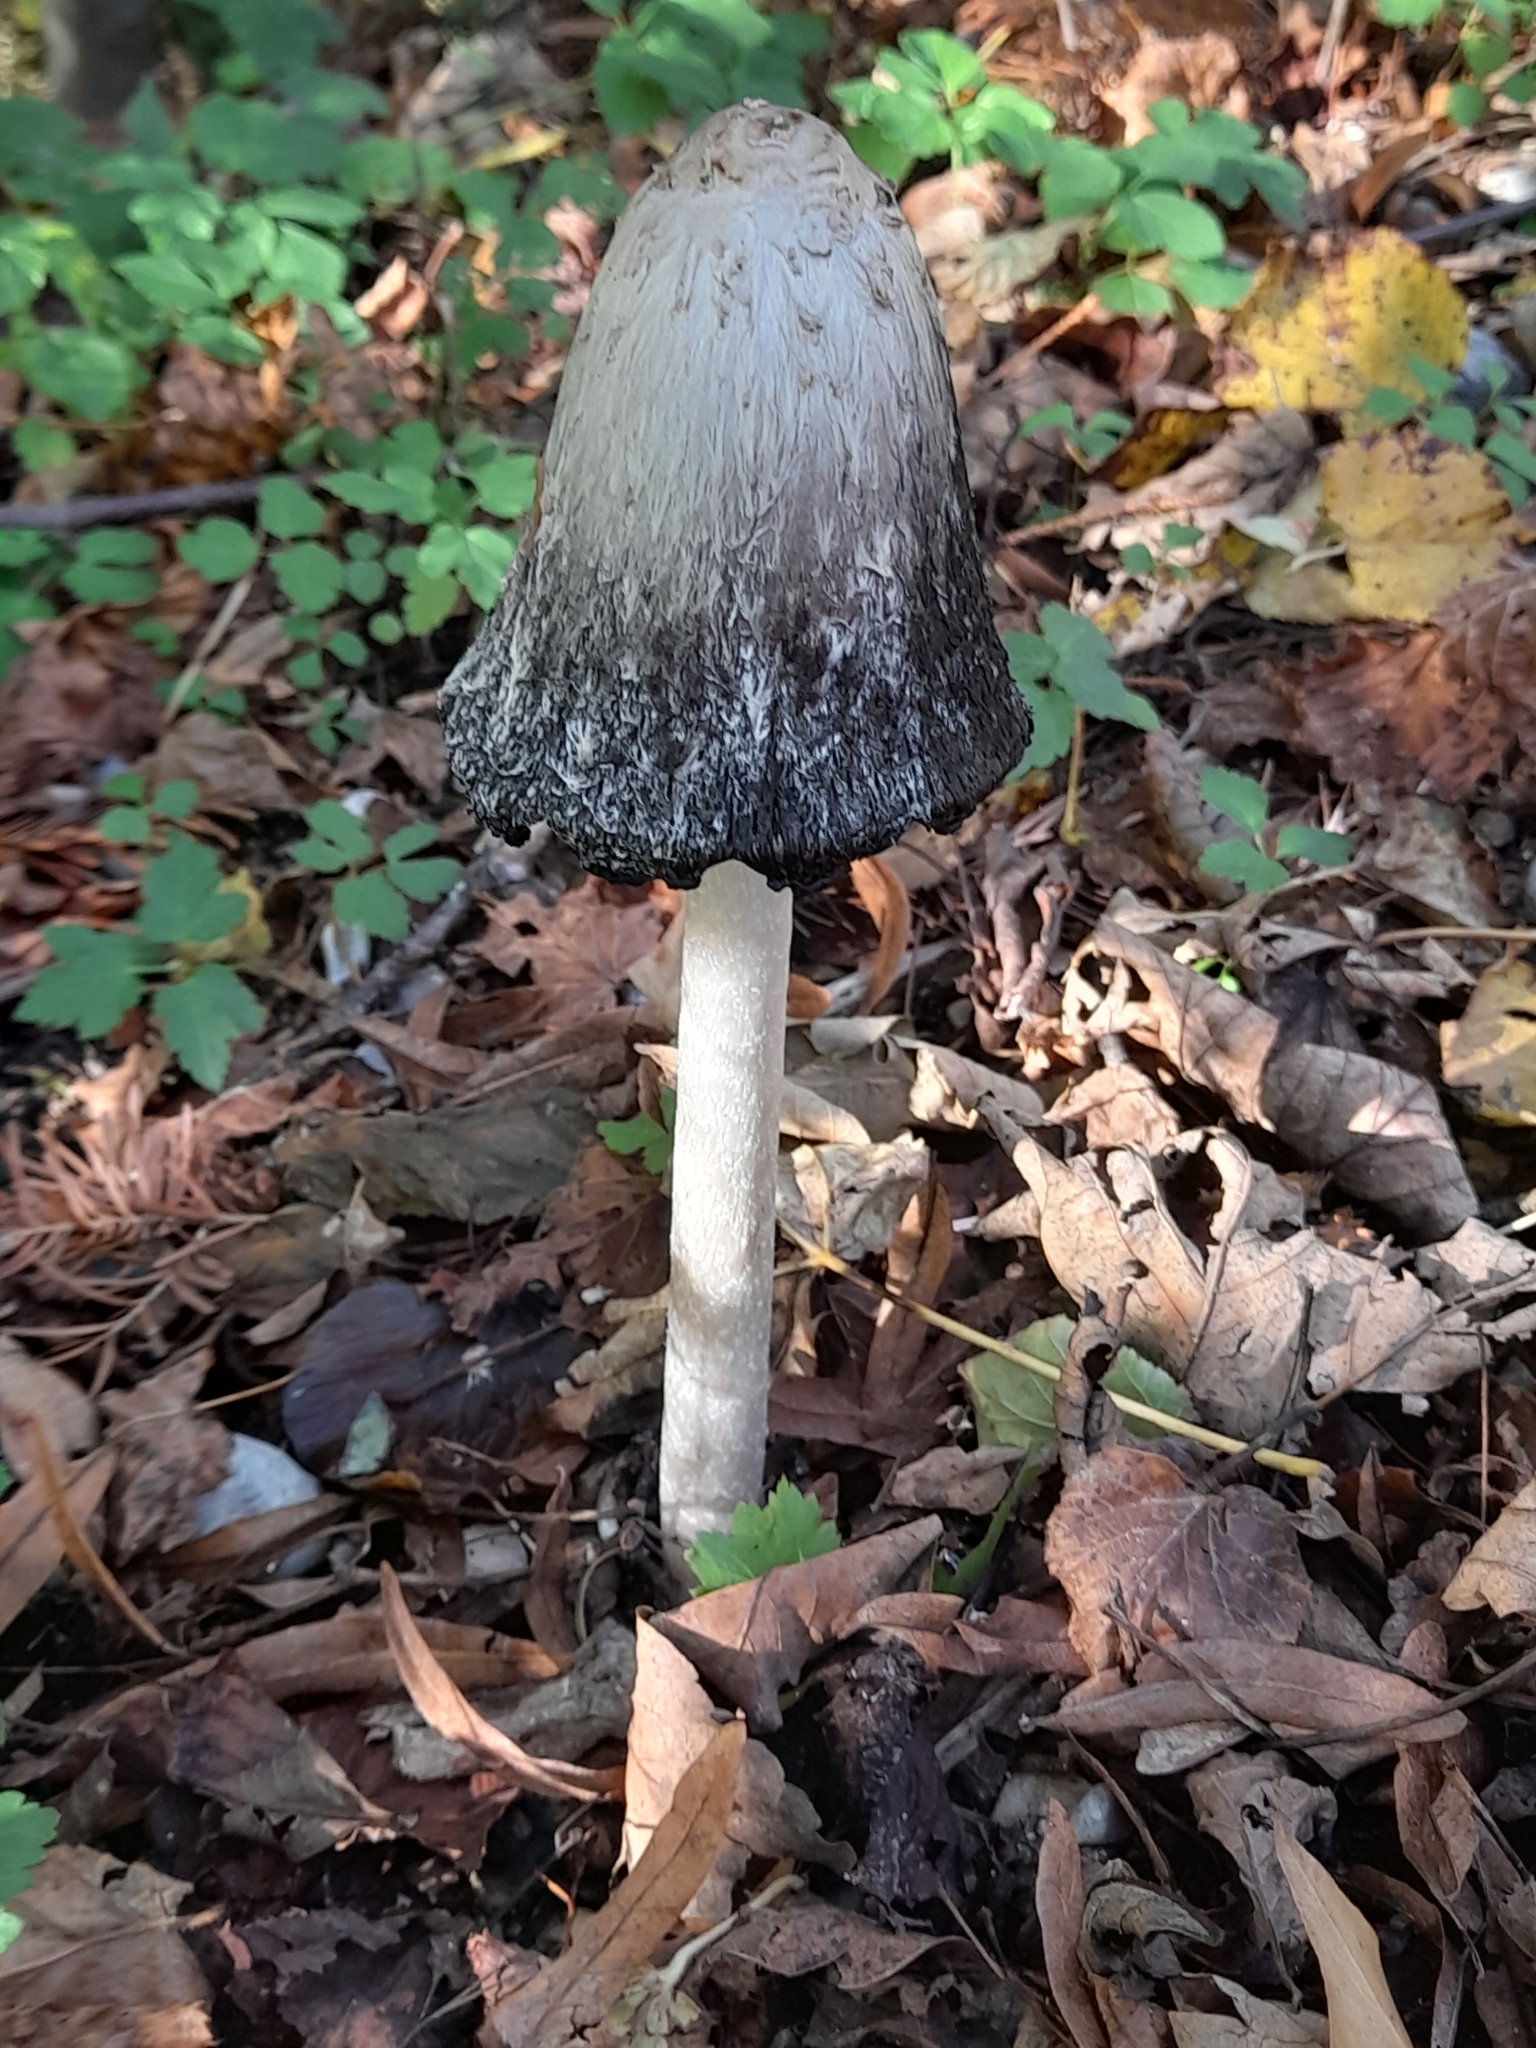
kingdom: Fungi
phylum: Basidiomycota
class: Agaricomycetes
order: Agaricales
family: Agaricaceae
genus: Coprinus
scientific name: Coprinus comatus
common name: Lawyer's wig
